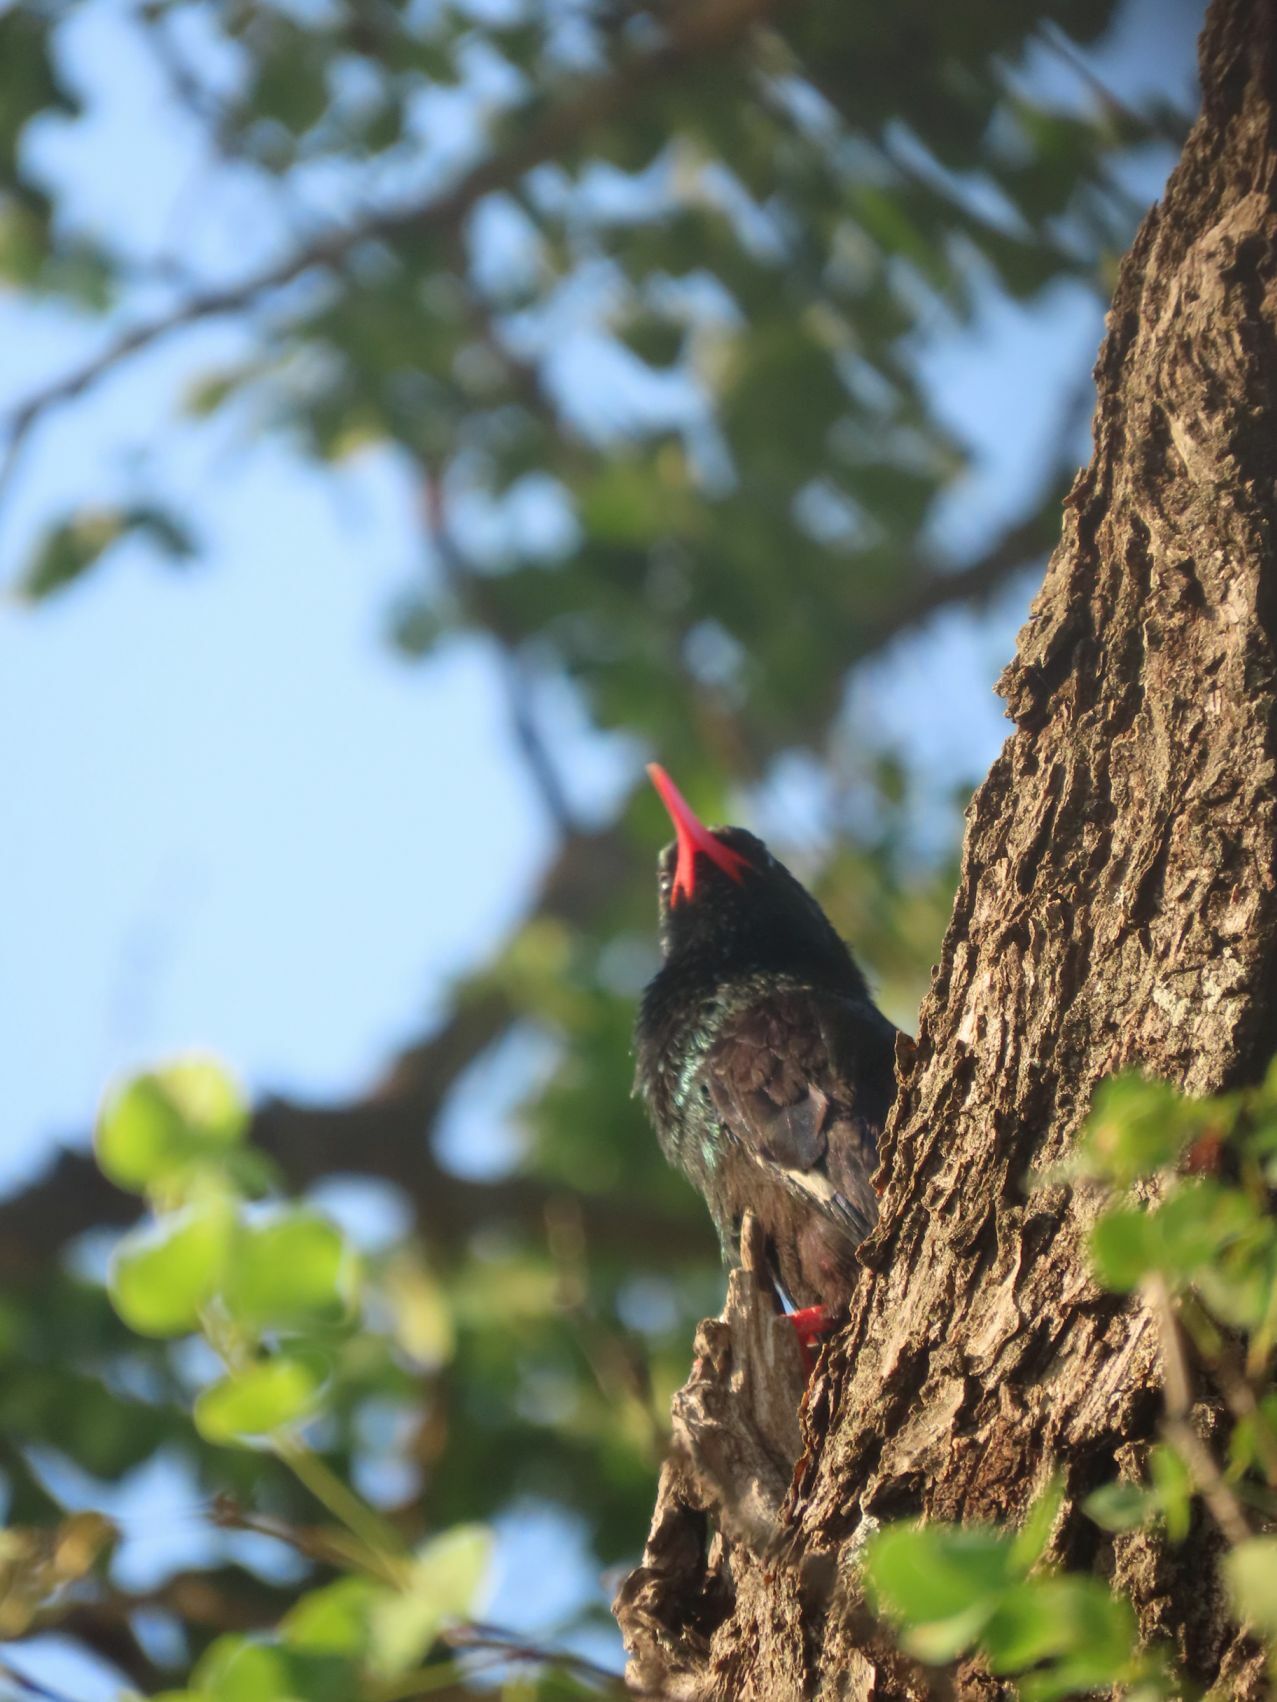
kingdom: Animalia
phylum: Chordata
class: Aves
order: Bucerotiformes
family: Phoeniculidae
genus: Phoeniculus
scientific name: Phoeniculus purpureus
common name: Green woodhoopoe
